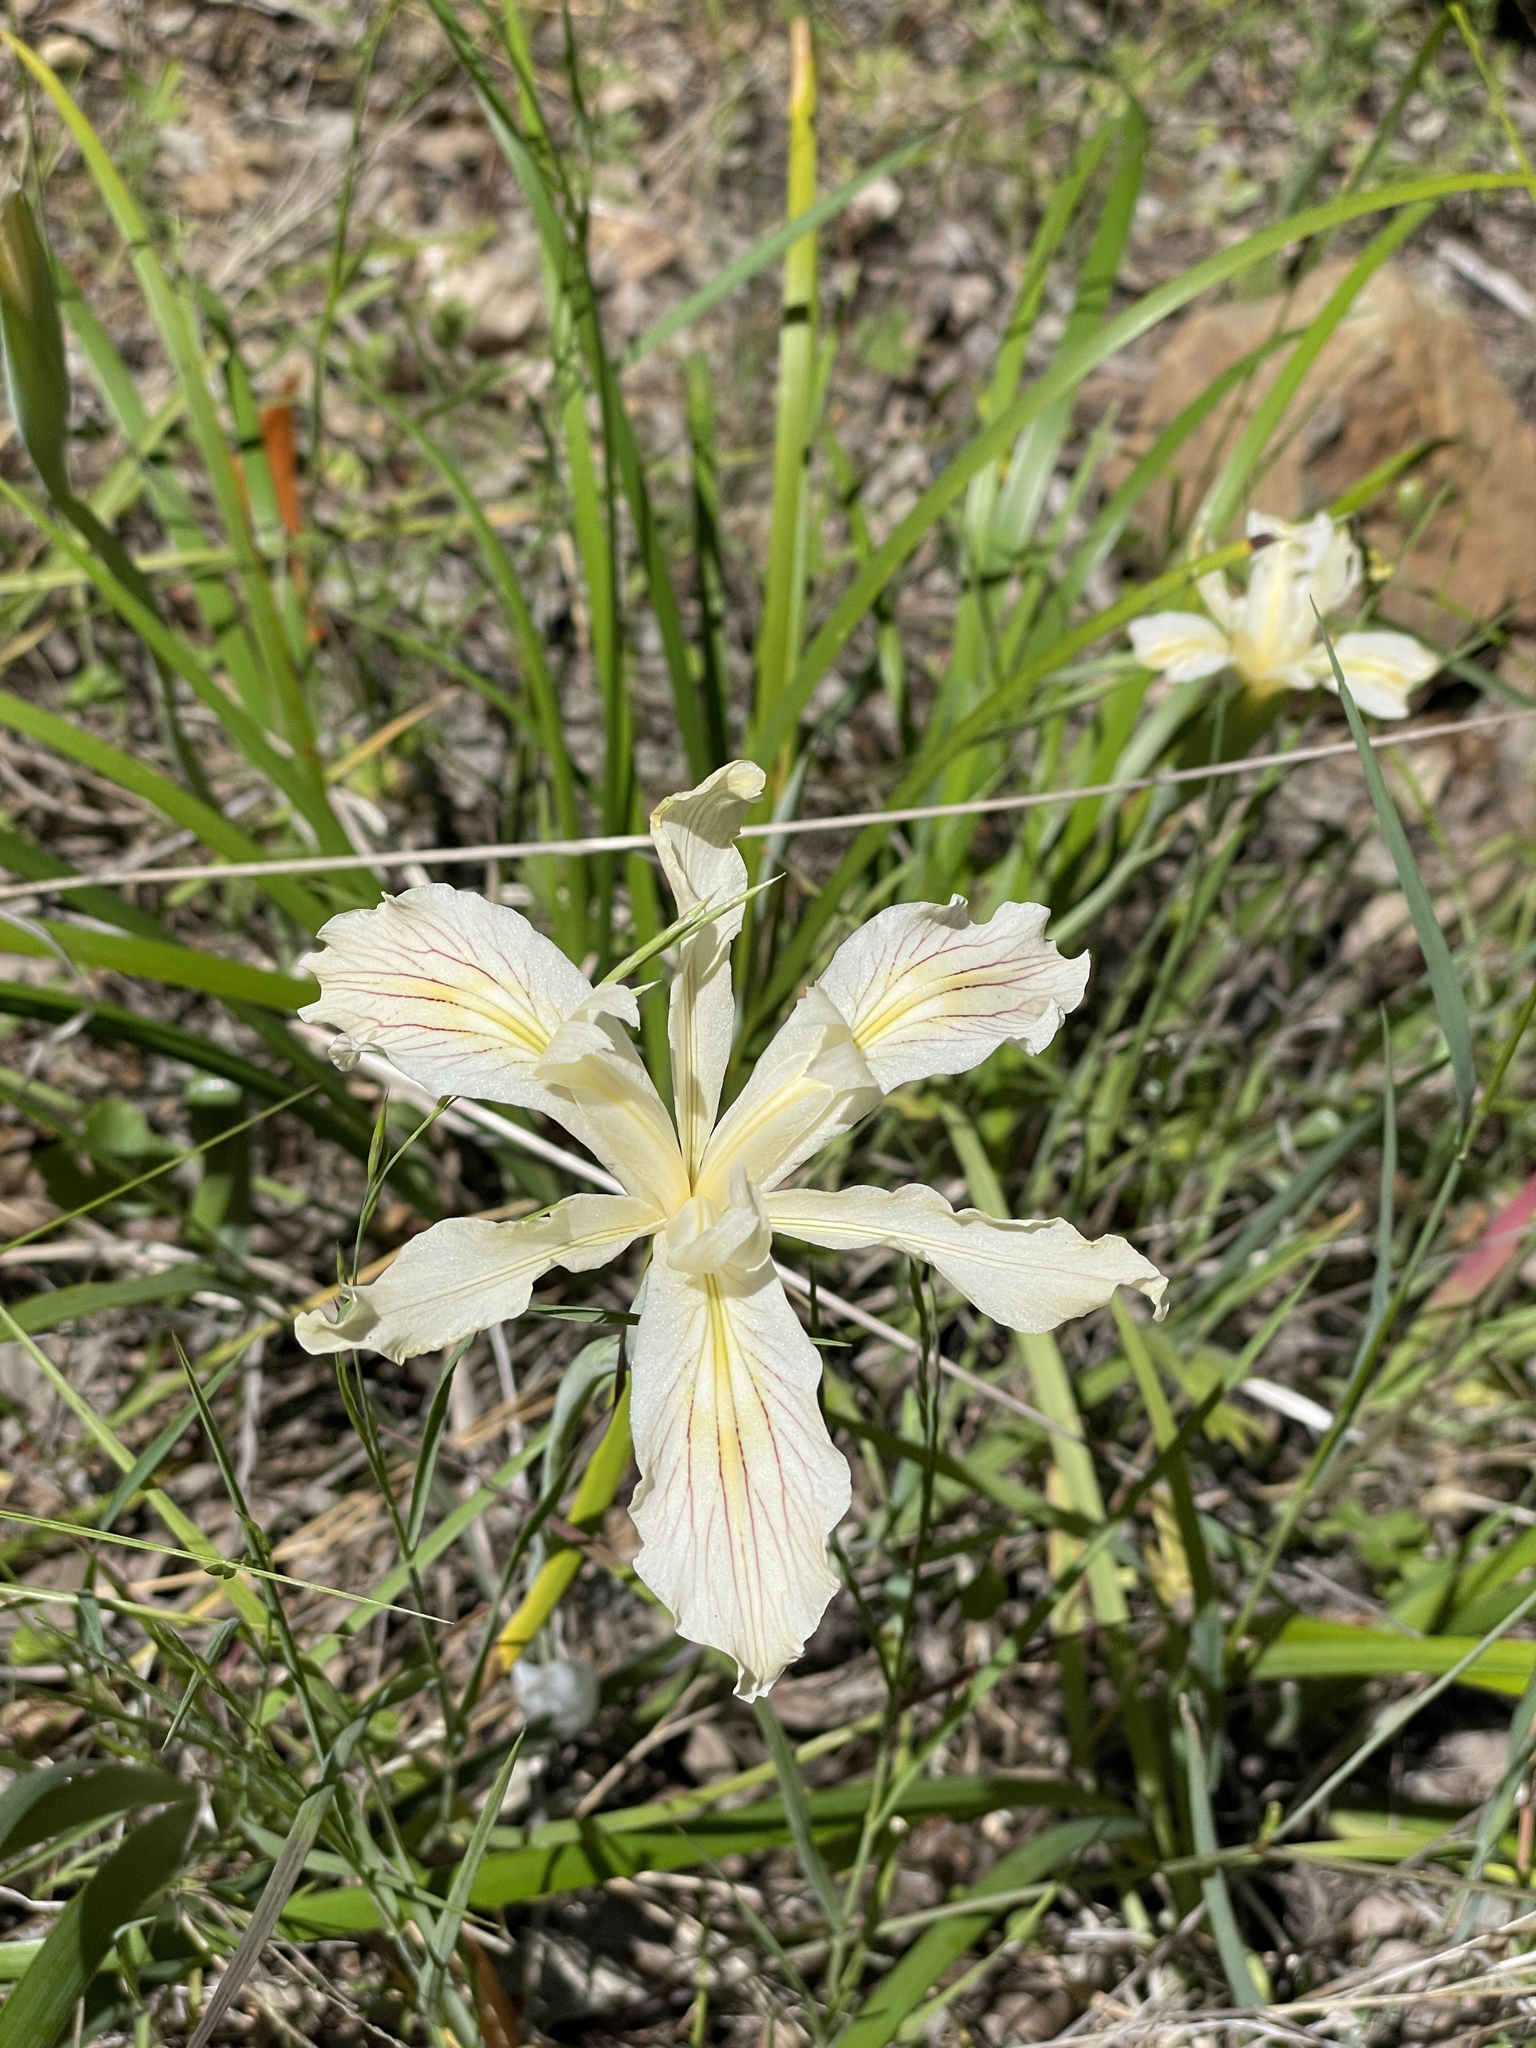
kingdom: Plantae
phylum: Tracheophyta
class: Liliopsida
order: Asparagales
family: Iridaceae
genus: Iris
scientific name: Iris purdyi
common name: Purdy's iris
